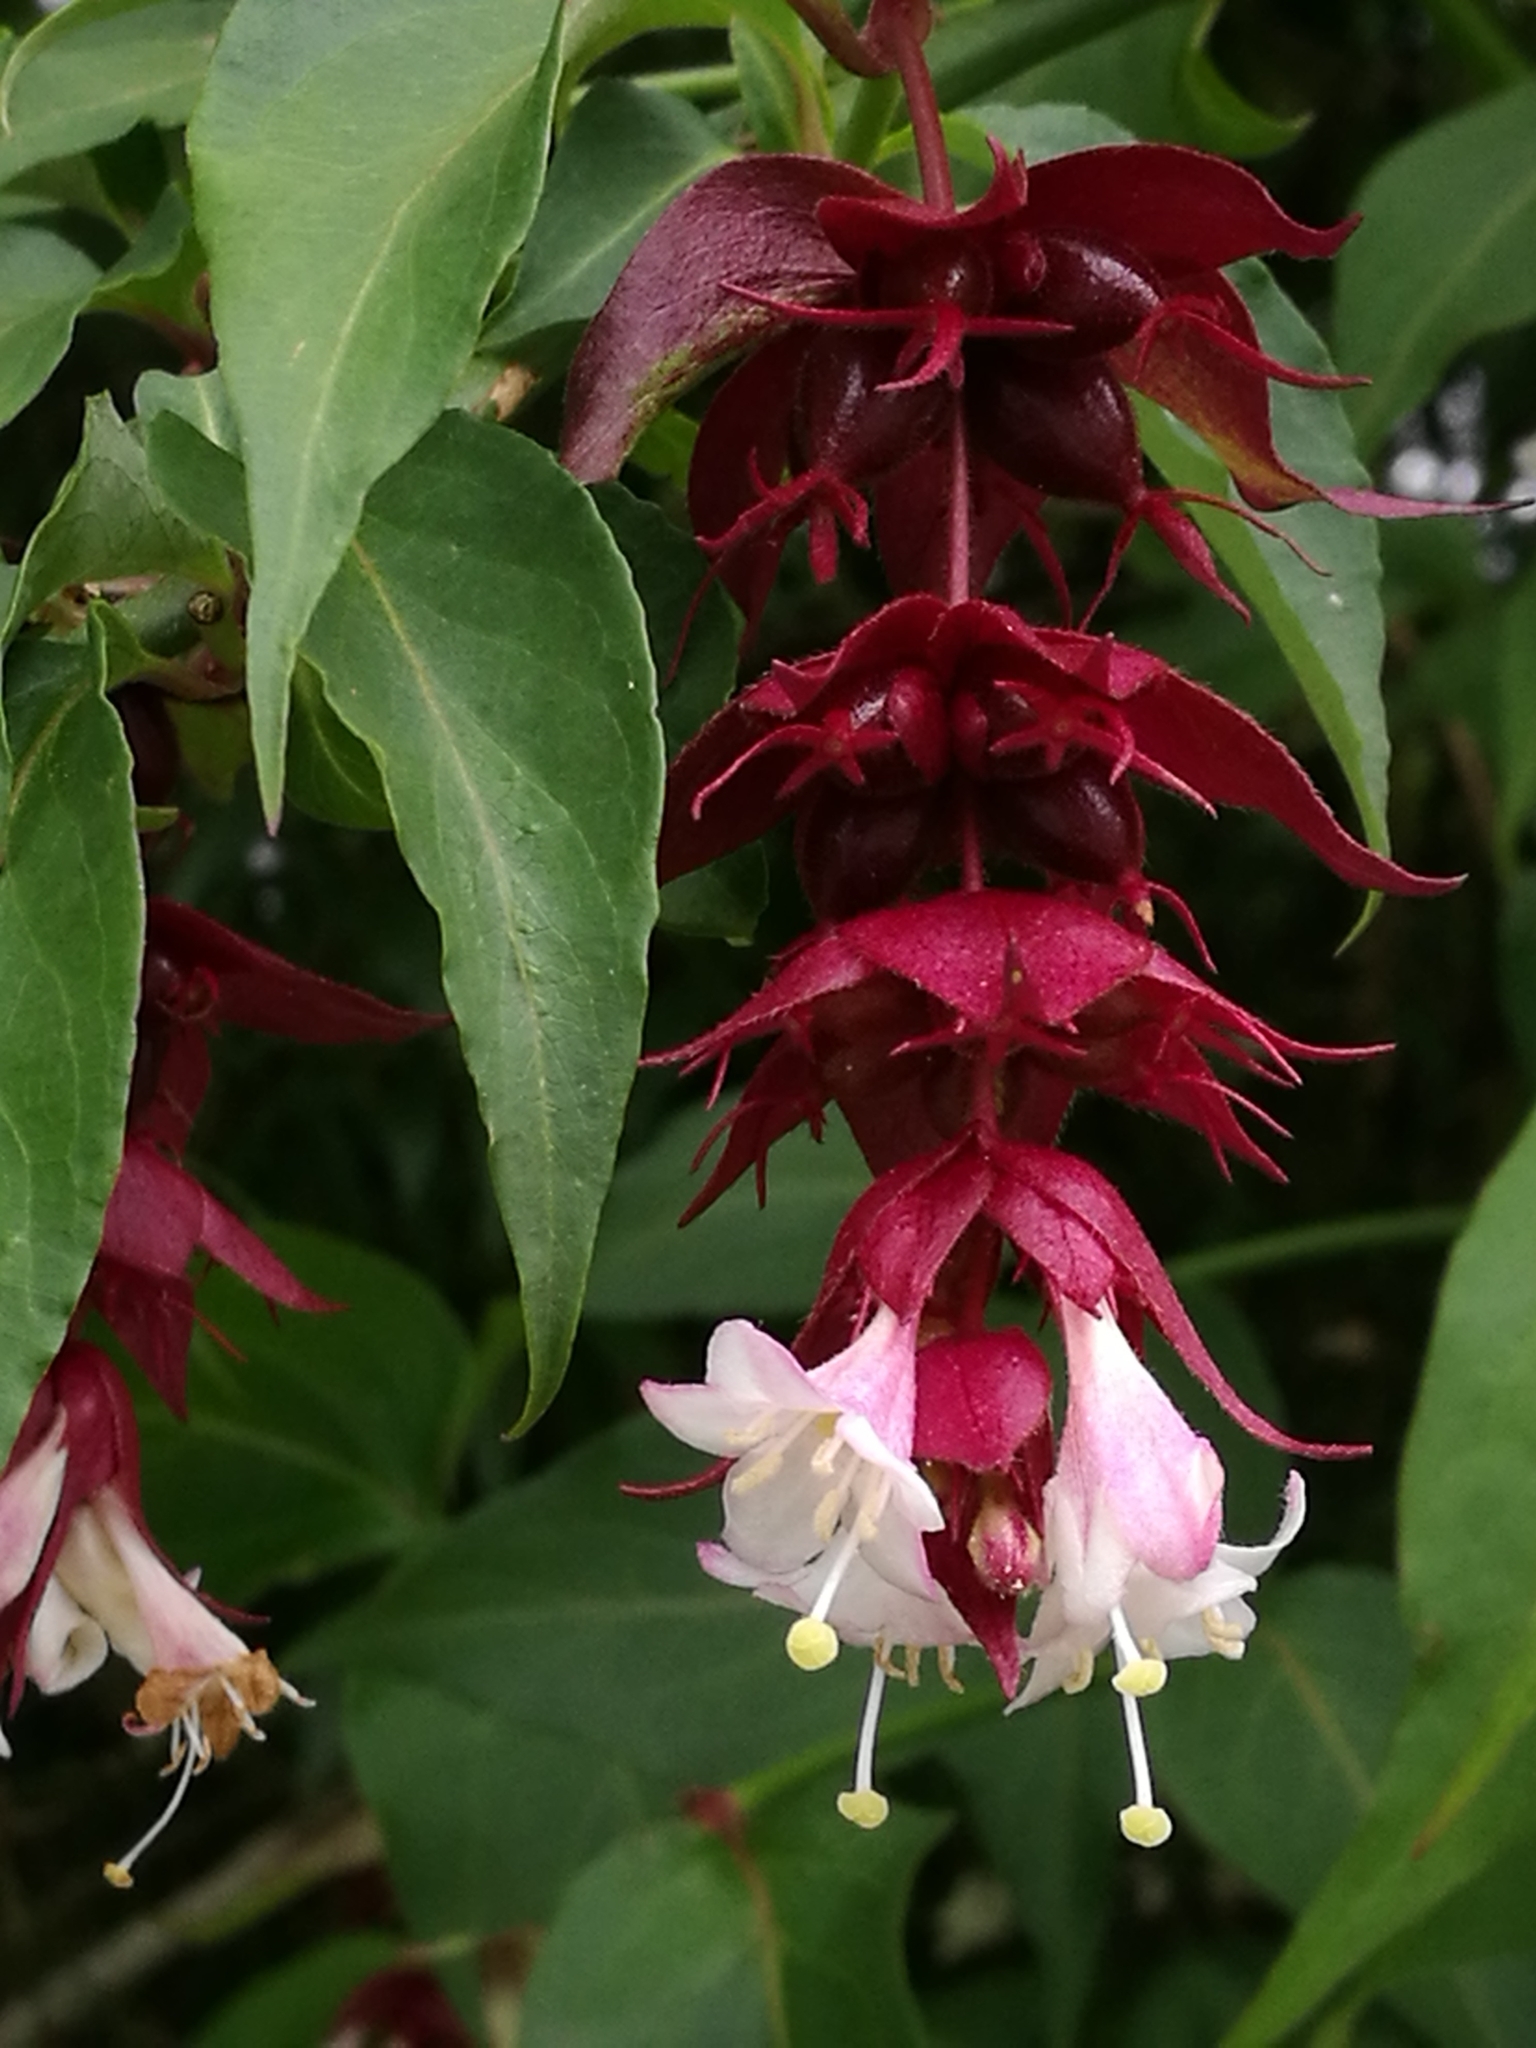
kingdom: Plantae
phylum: Tracheophyta
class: Magnoliopsida
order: Dipsacales
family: Caprifoliaceae
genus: Leycesteria
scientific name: Leycesteria formosa
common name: Himalayan honeysuckle
